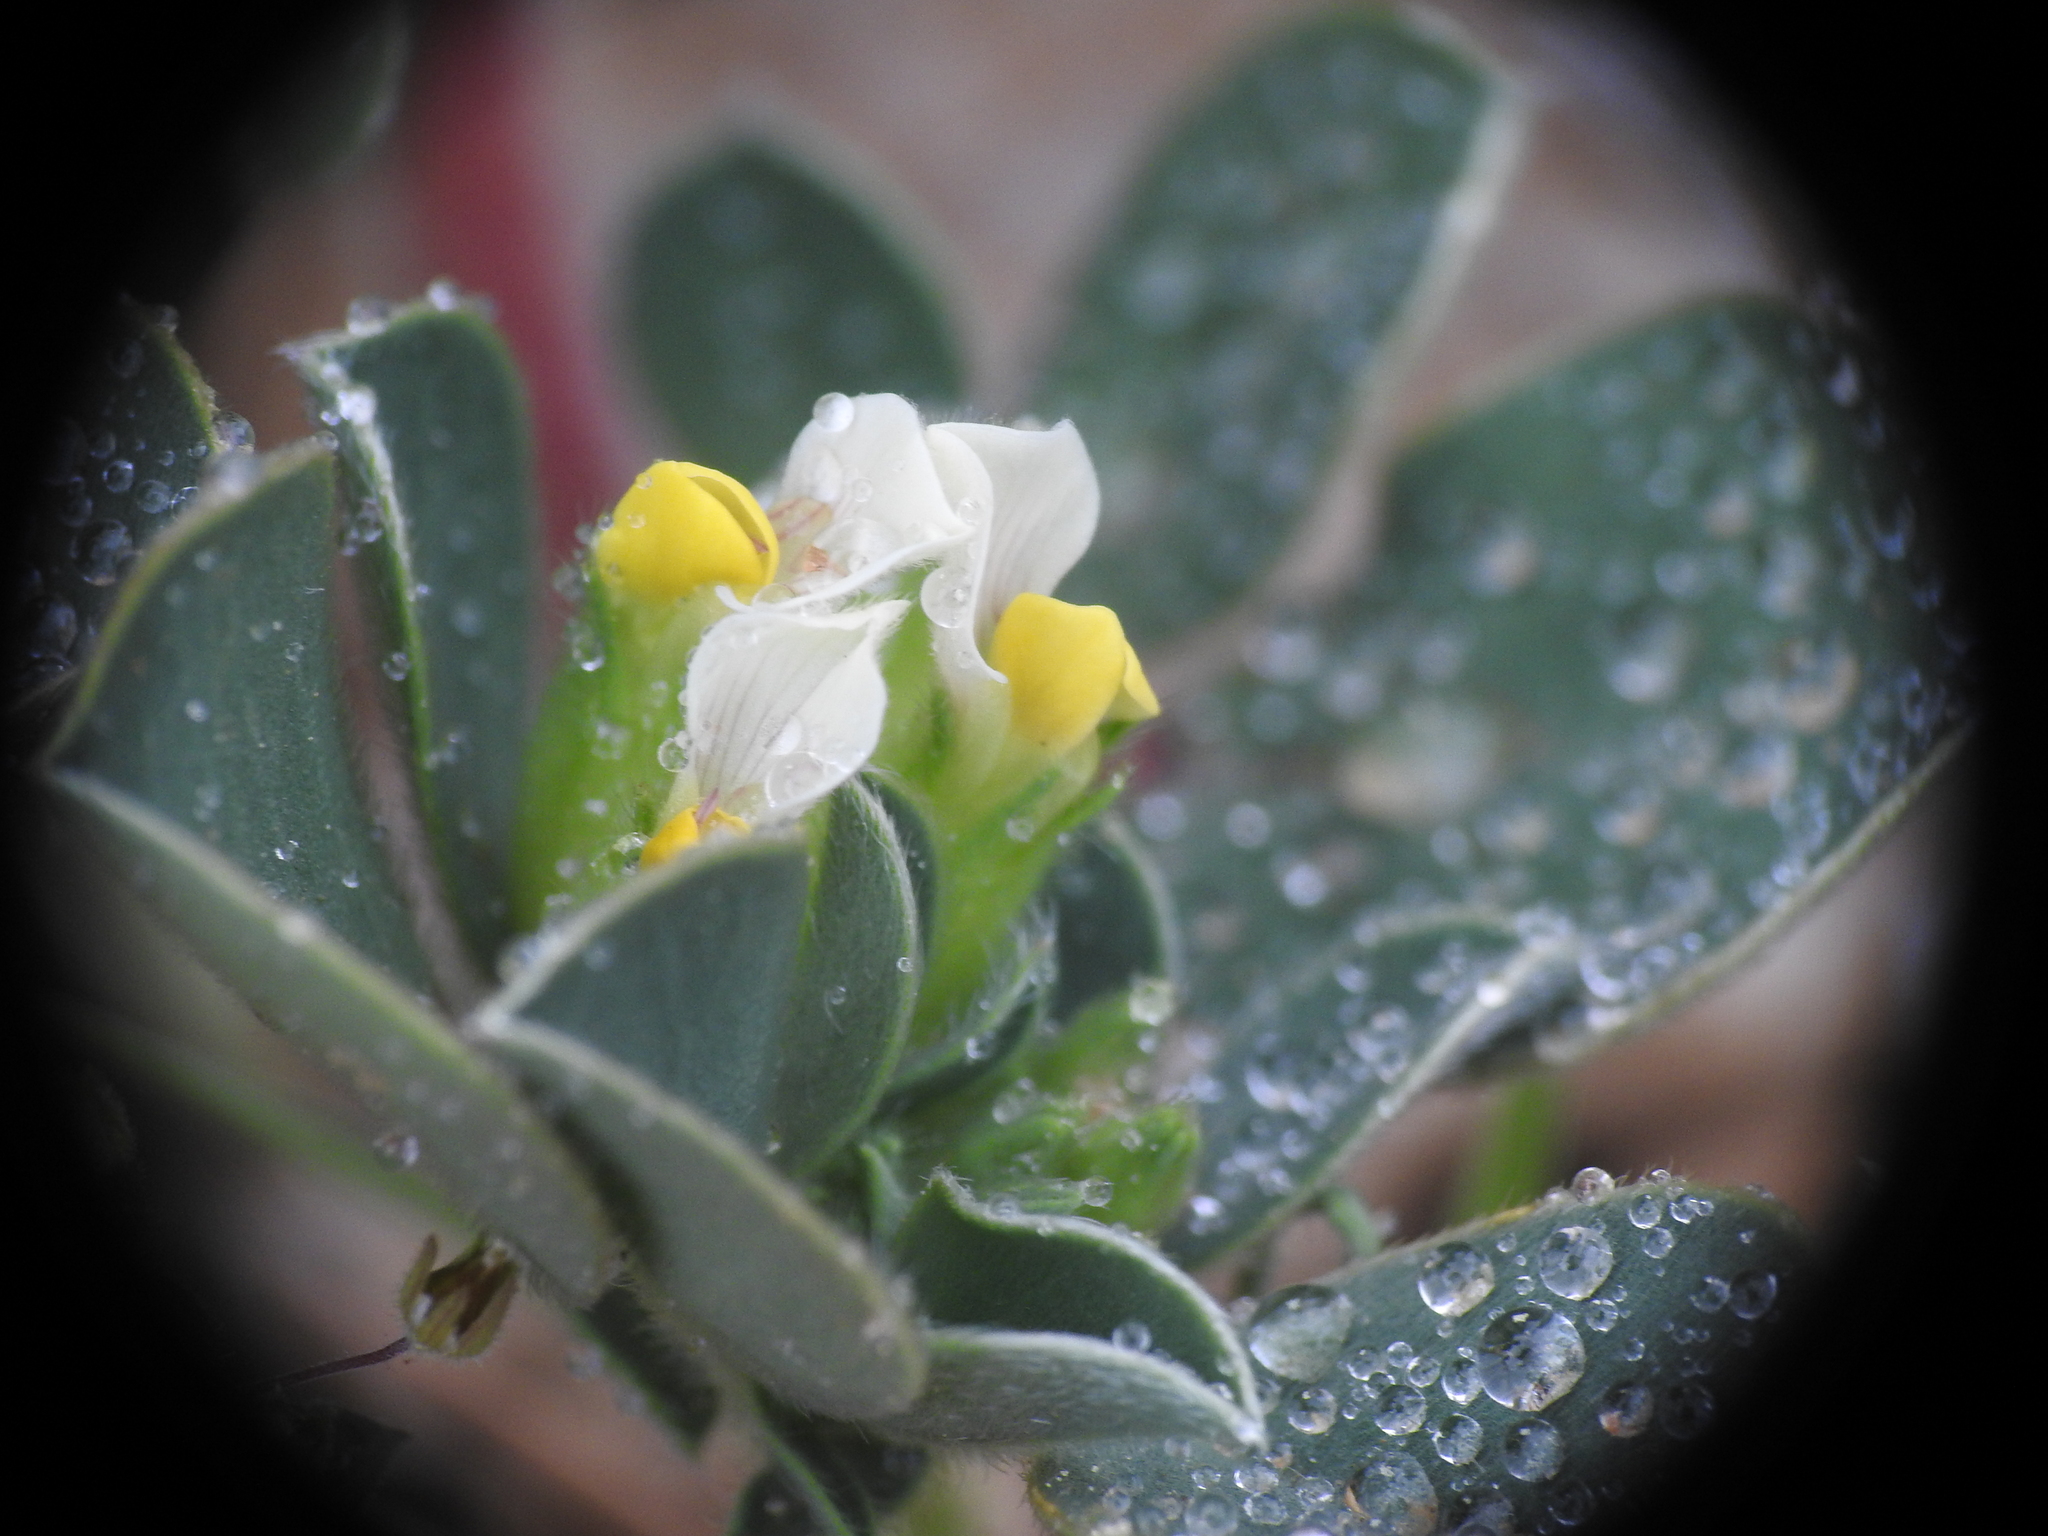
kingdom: Plantae
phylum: Tracheophyta
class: Magnoliopsida
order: Fabales
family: Fabaceae
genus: Tripodion
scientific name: Tripodion tetraphyllum
